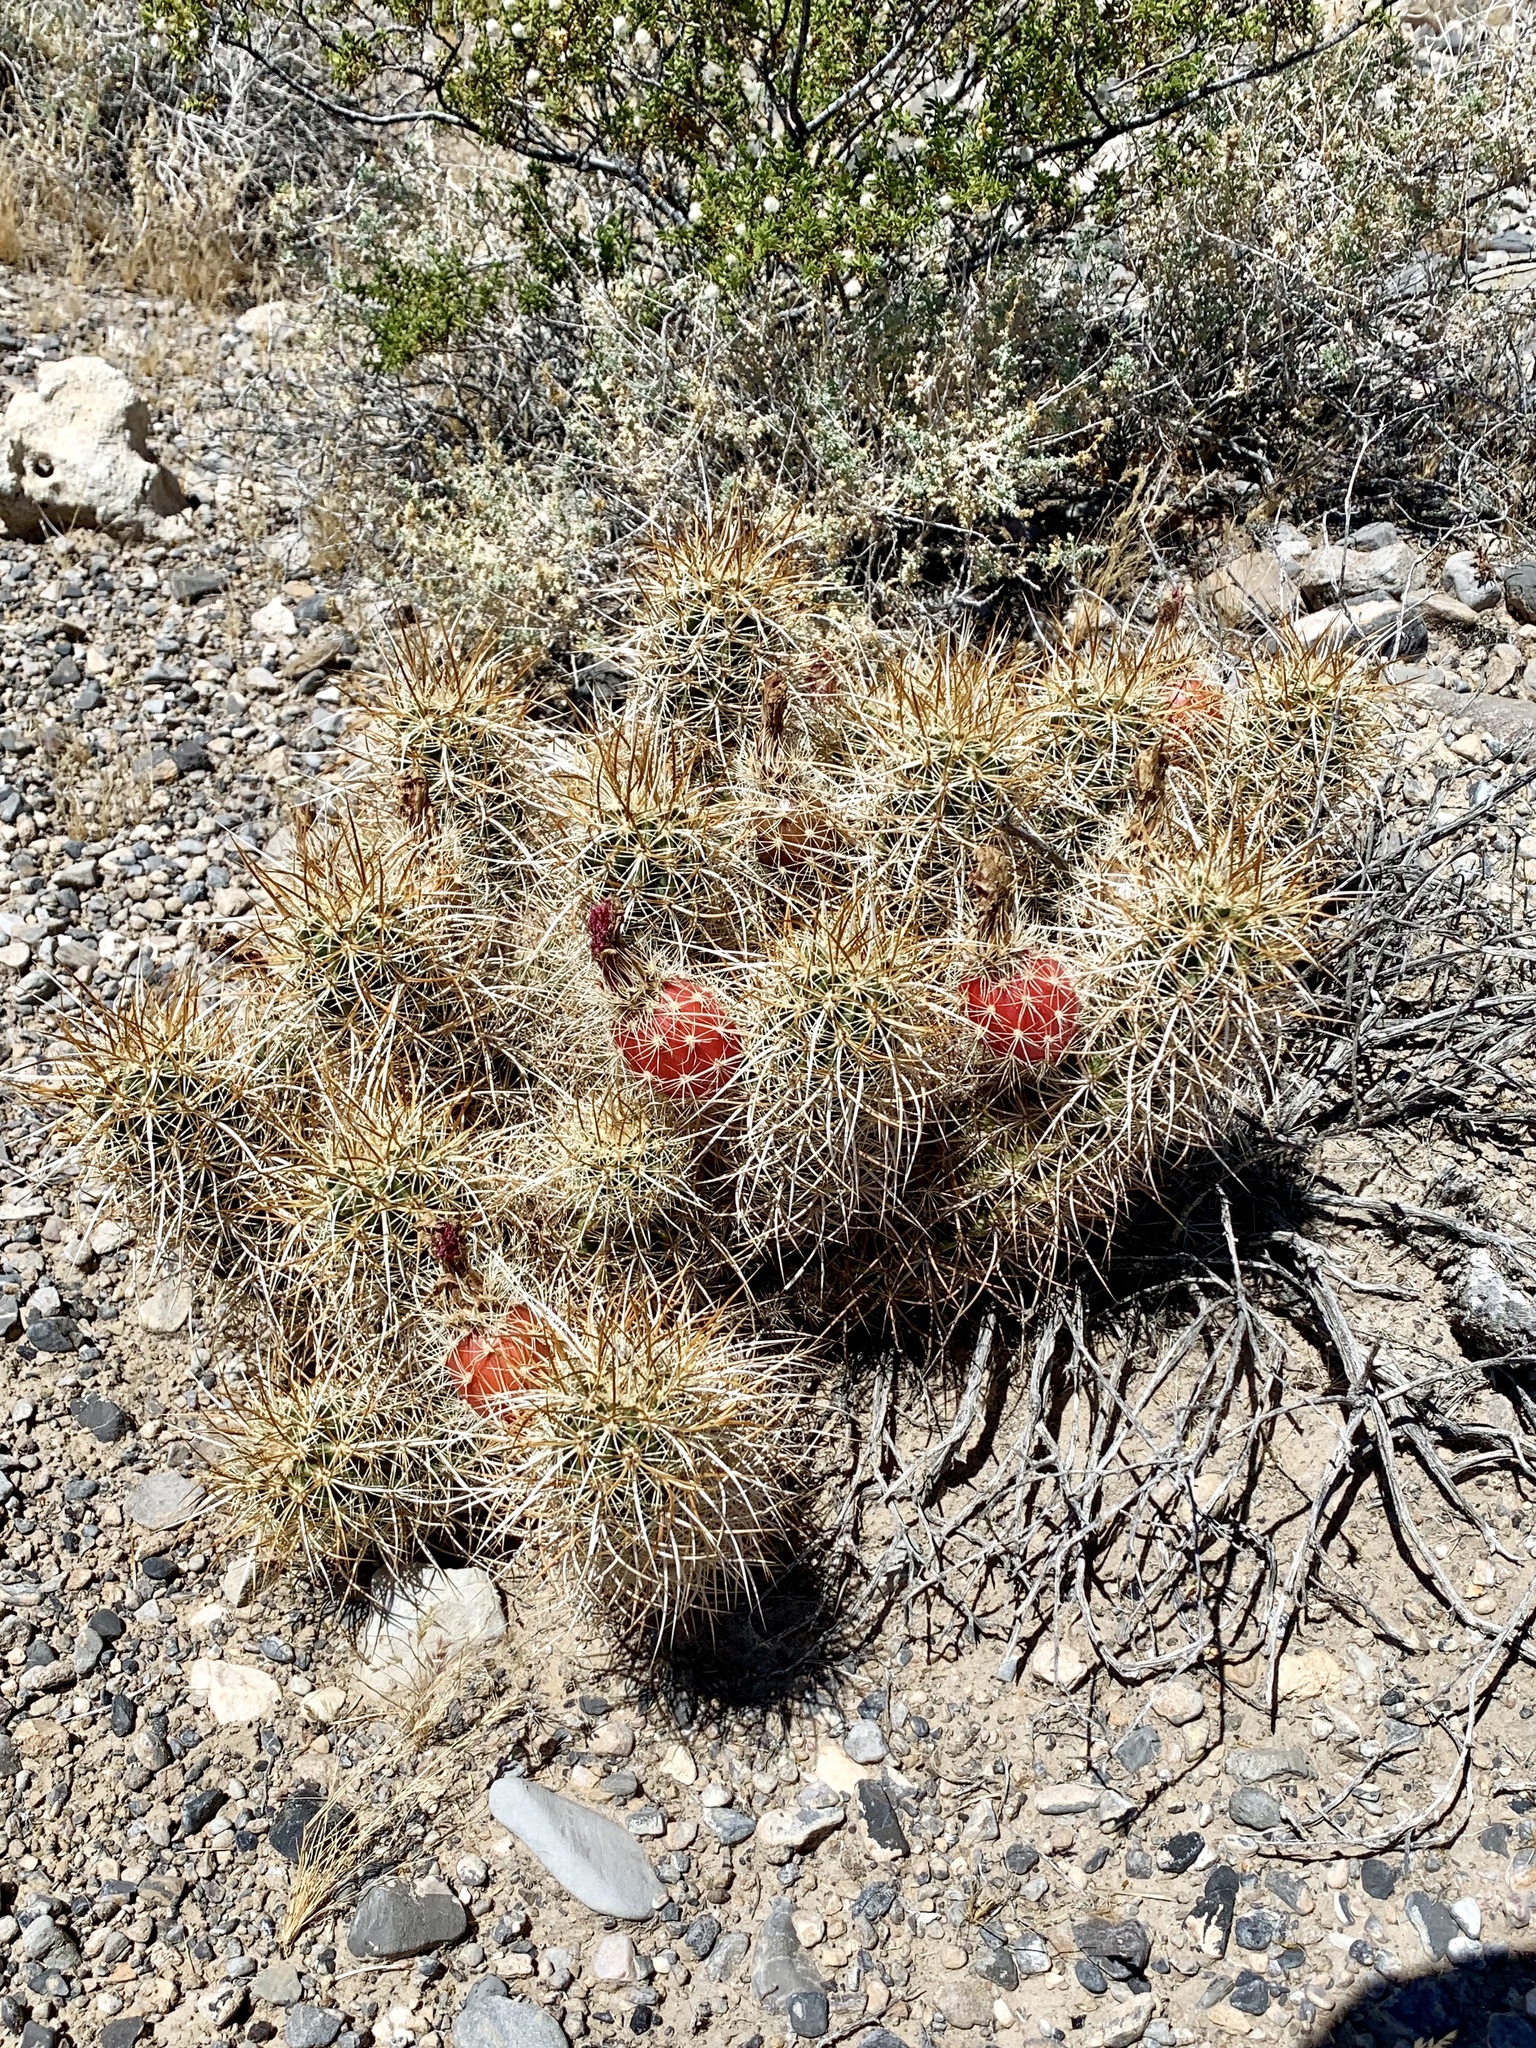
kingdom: Plantae
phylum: Tracheophyta
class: Magnoliopsida
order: Caryophyllales
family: Cactaceae
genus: Echinocereus
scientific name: Echinocereus engelmannii
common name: Engelmann's hedgehog cactus
